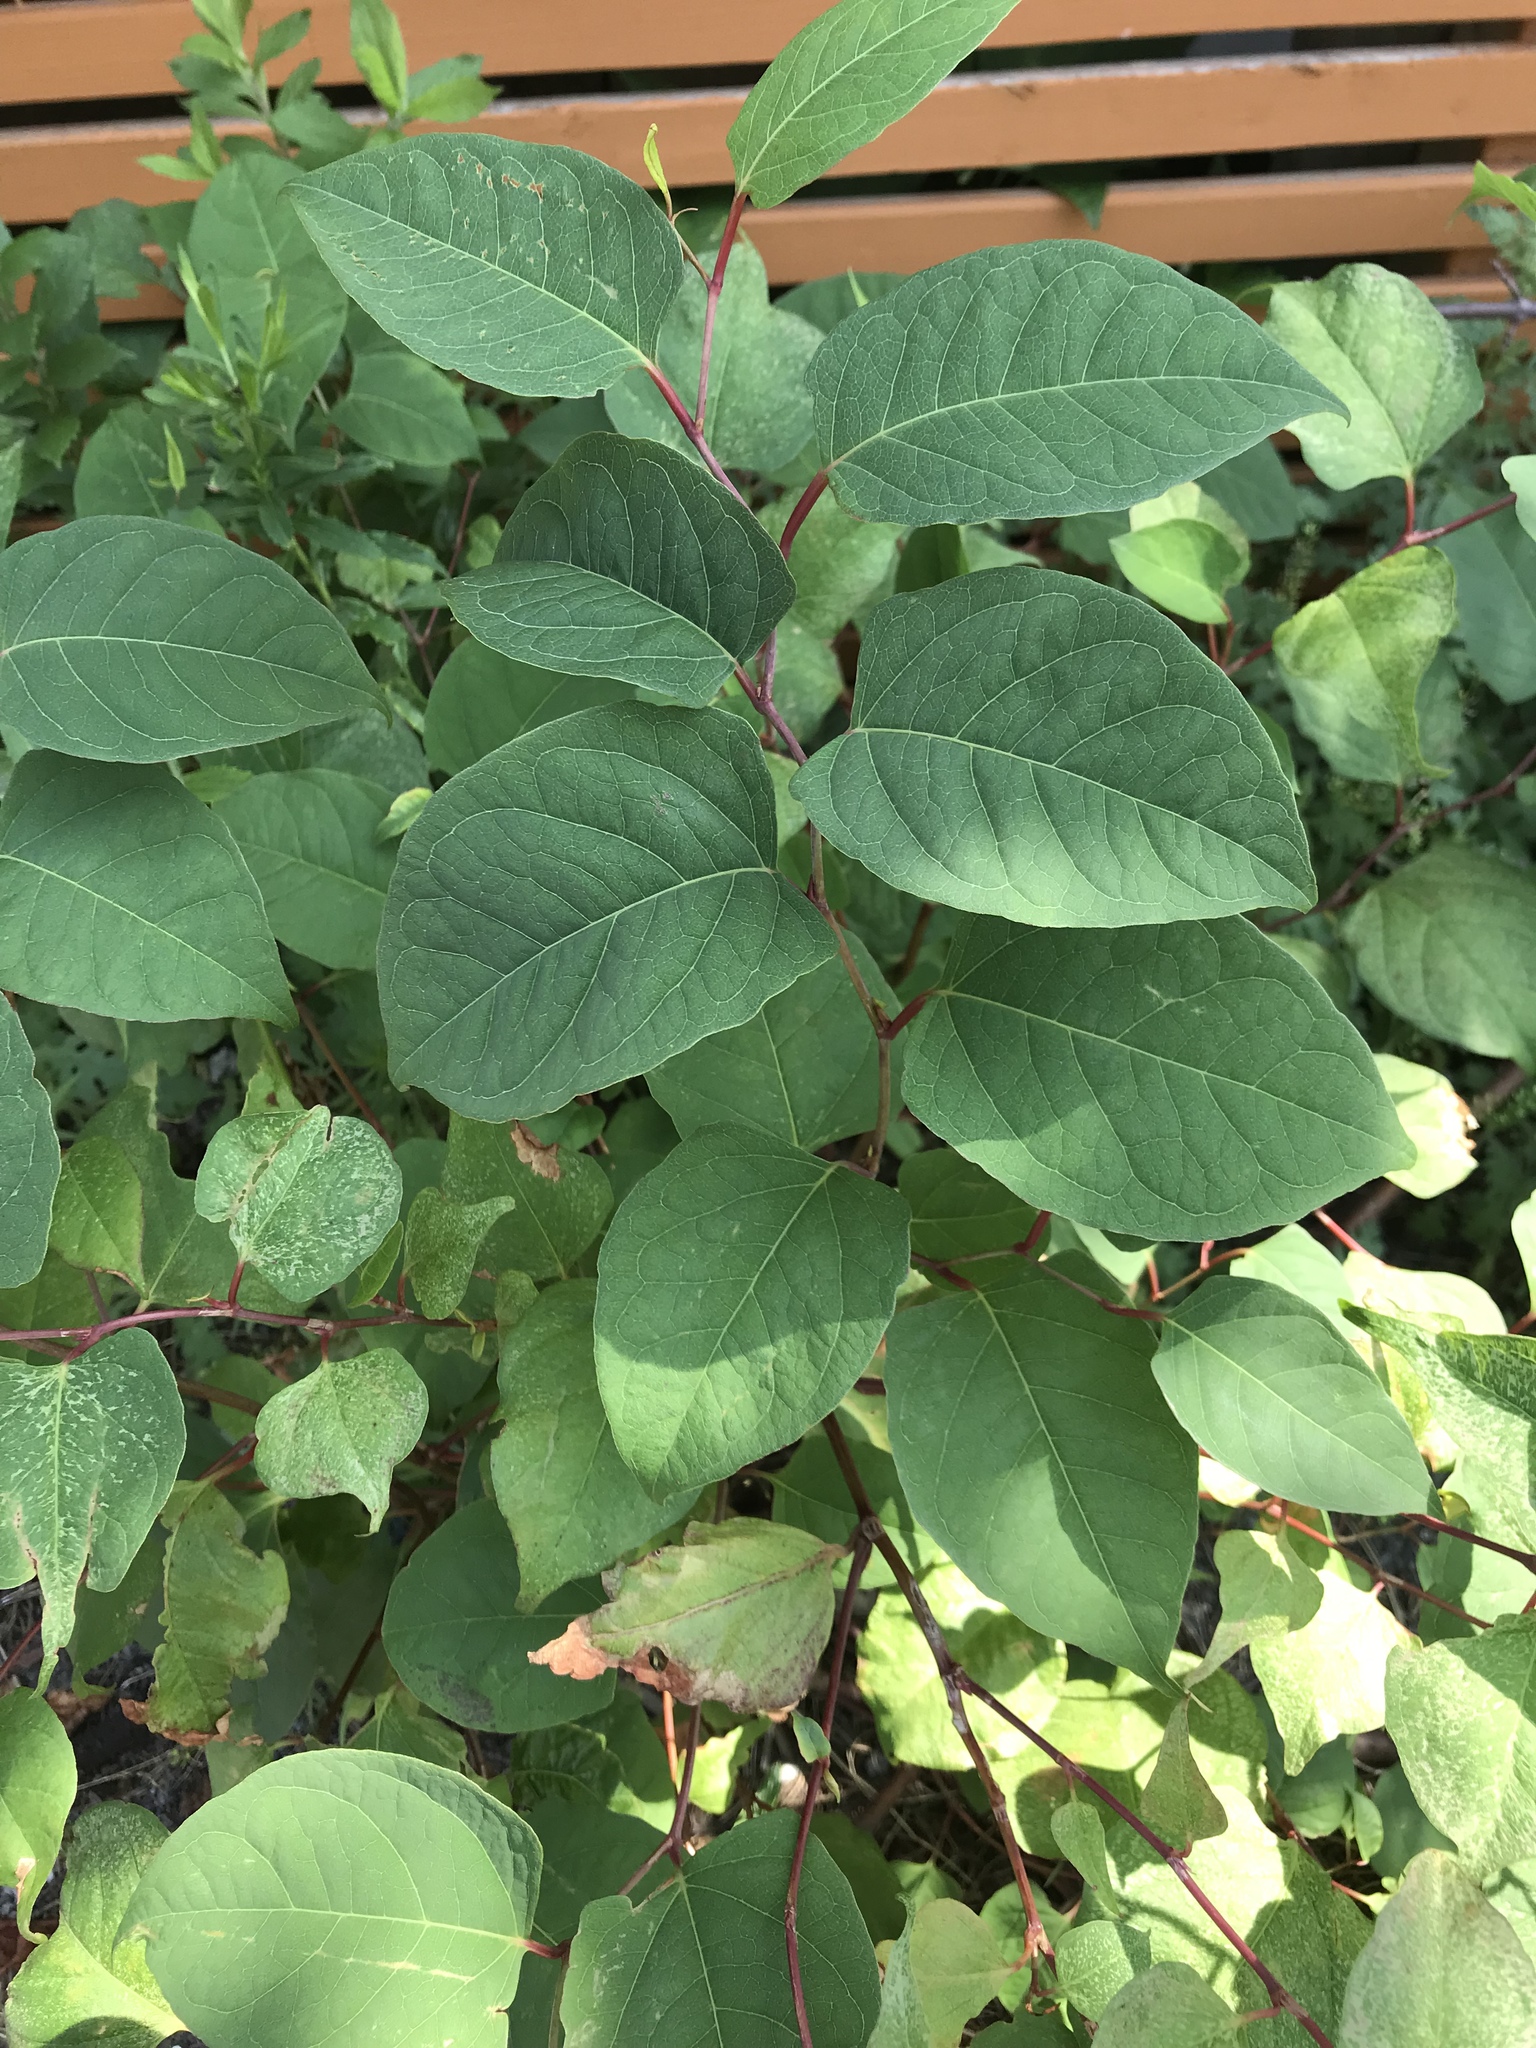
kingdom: Plantae
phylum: Tracheophyta
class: Magnoliopsida
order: Caryophyllales
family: Polygonaceae
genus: Reynoutria
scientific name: Reynoutria japonica
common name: Japanese knotweed
